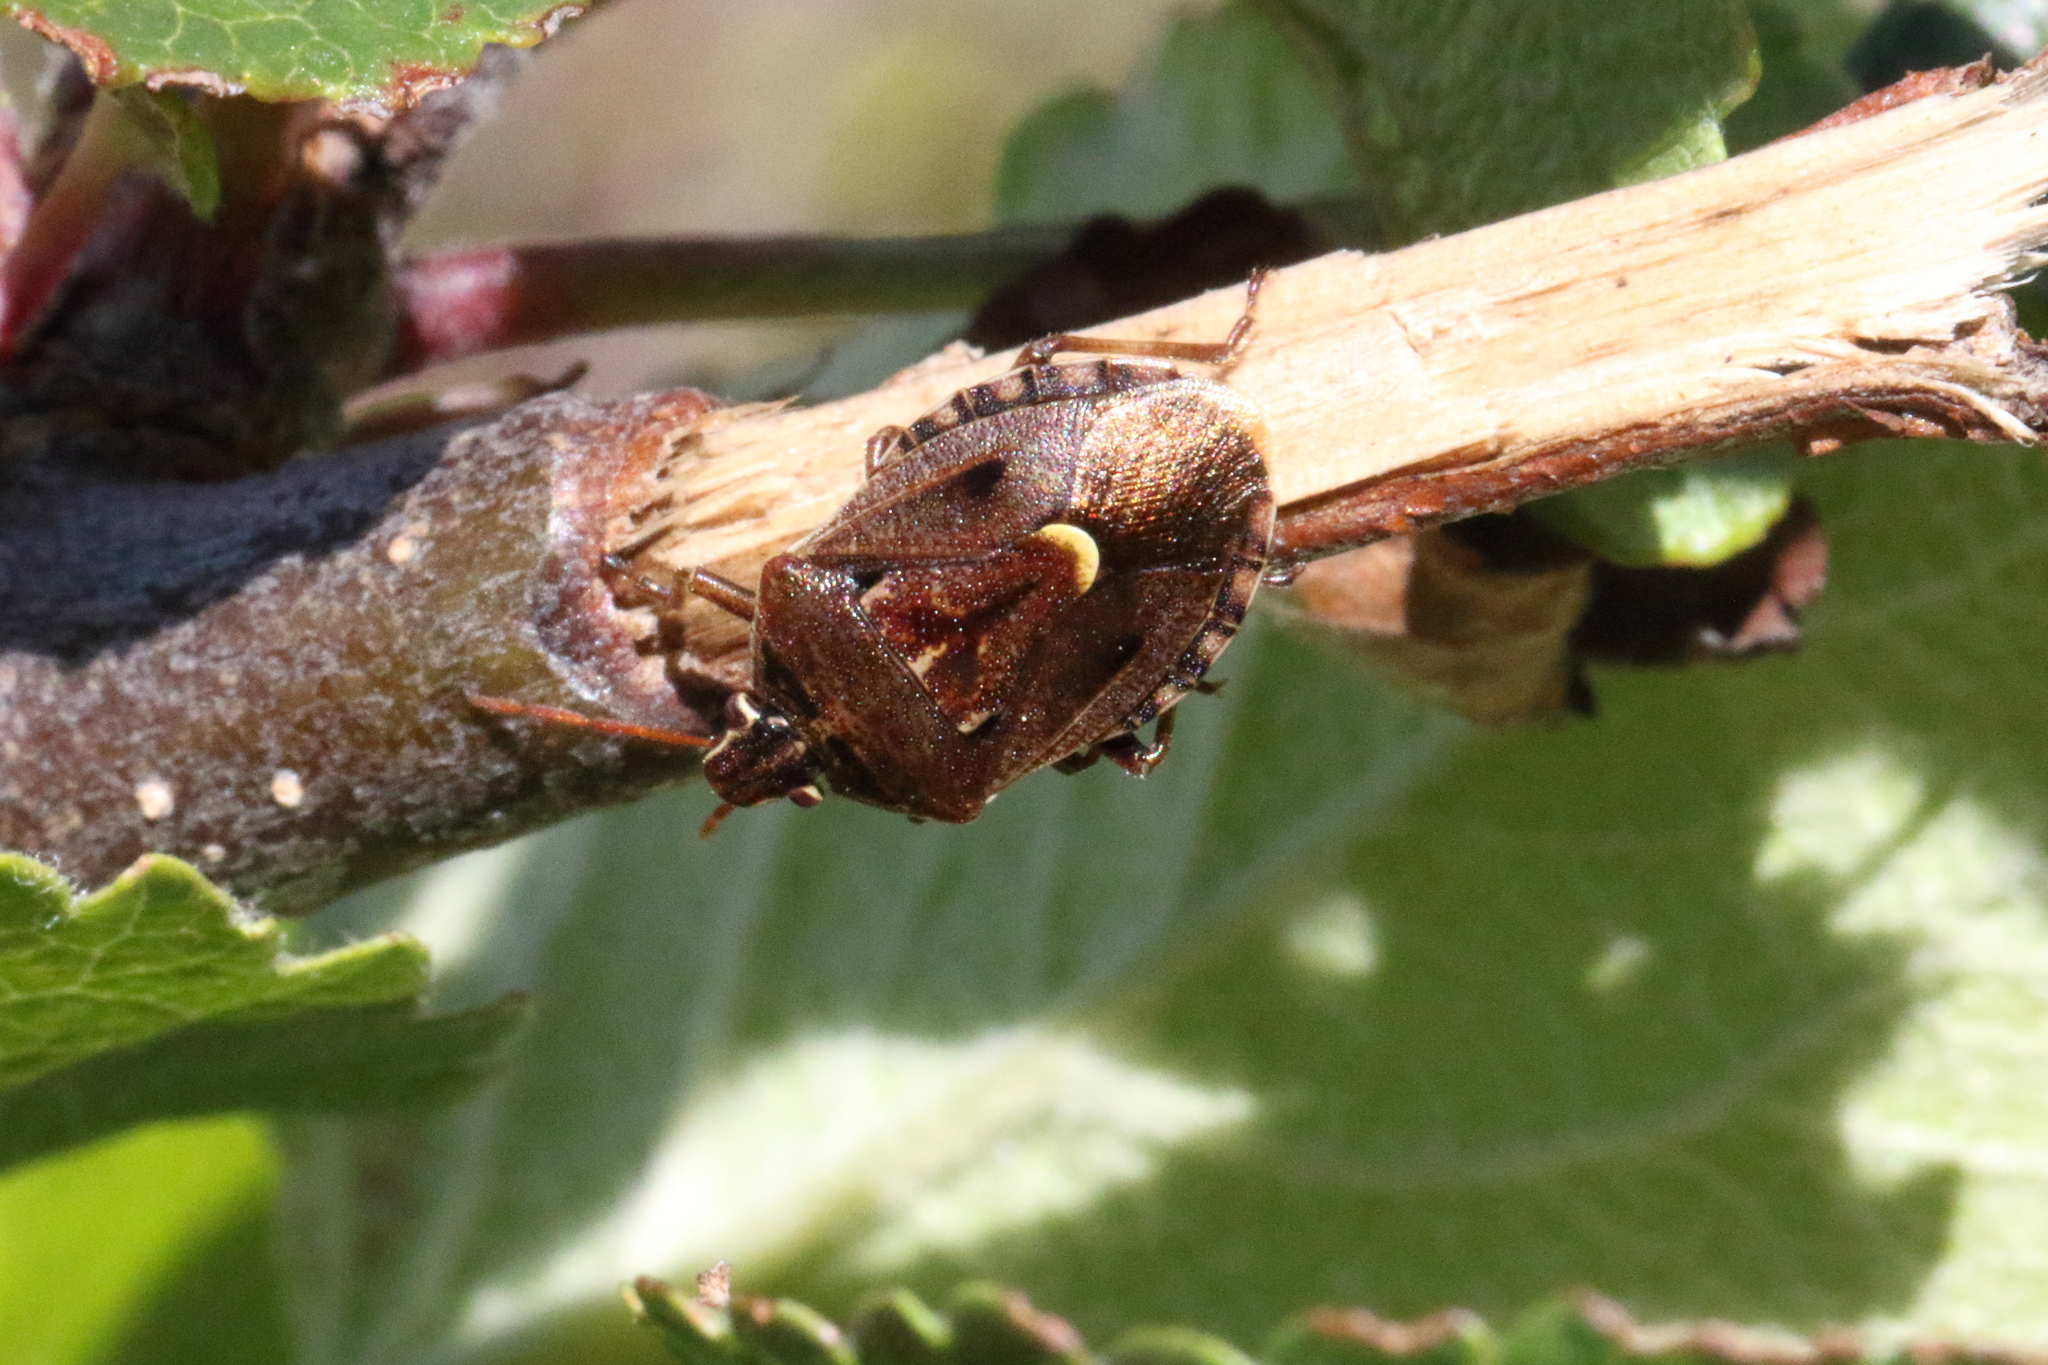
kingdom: Animalia
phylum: Arthropoda
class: Insecta
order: Hemiptera
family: Pentatomidae
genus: Cermatulus
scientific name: Cermatulus nasalis
